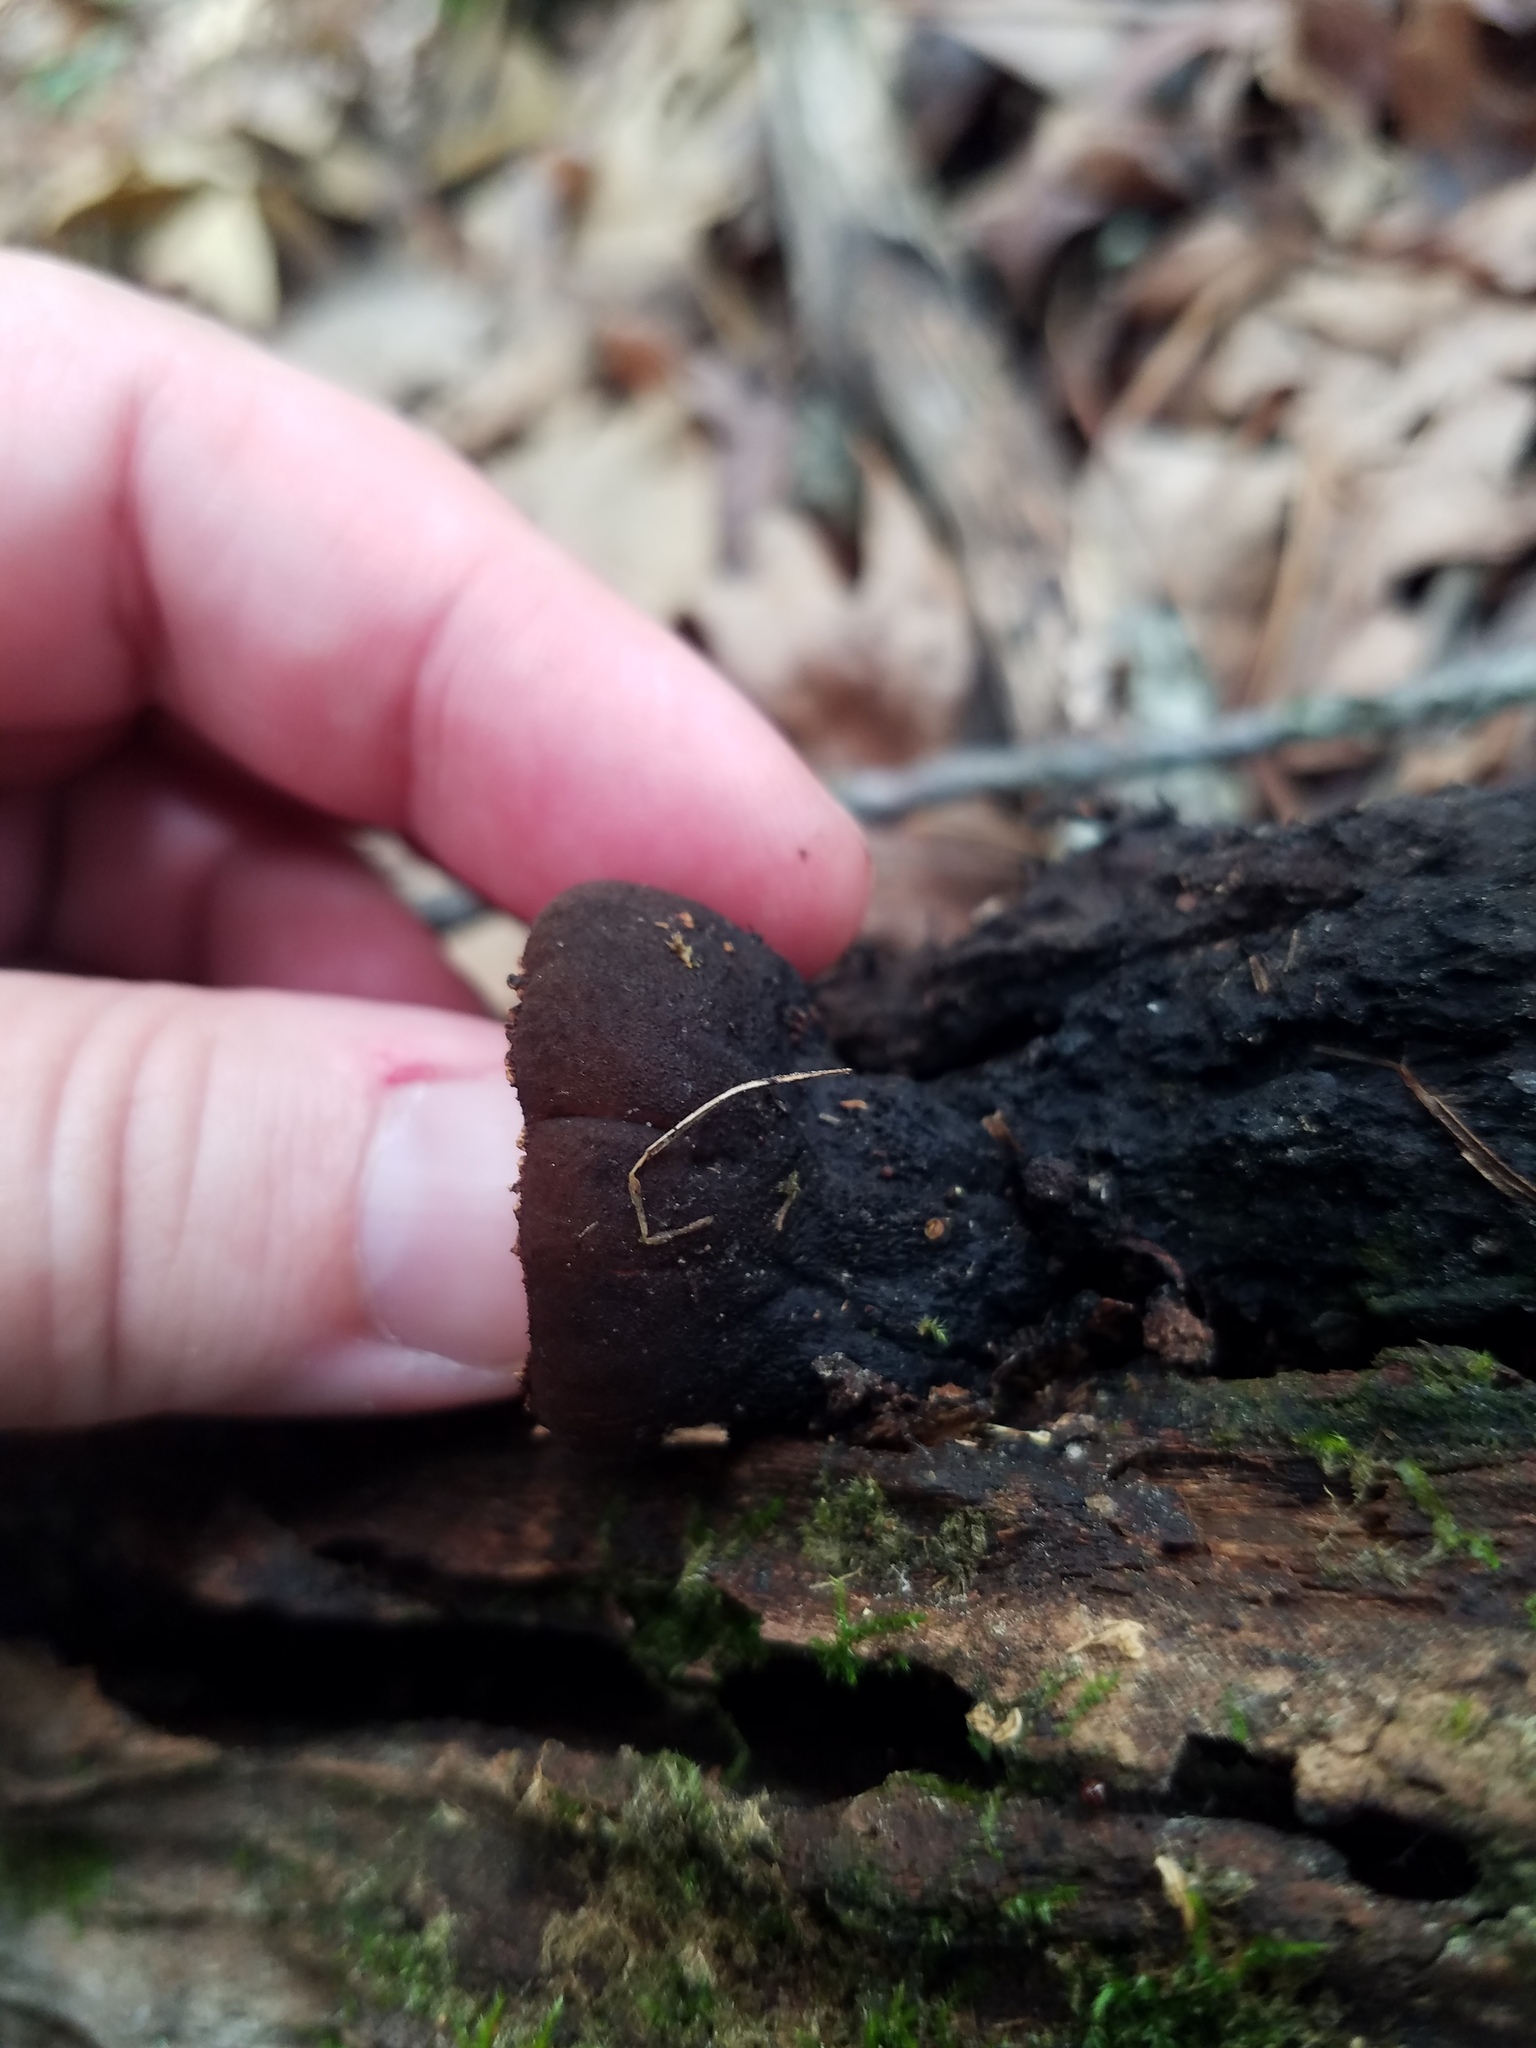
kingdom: Fungi
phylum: Ascomycota
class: Pezizomycetes
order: Pezizales
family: Sarcosomataceae
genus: Galiella
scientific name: Galiella rufa
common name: Hairy rubber cup
